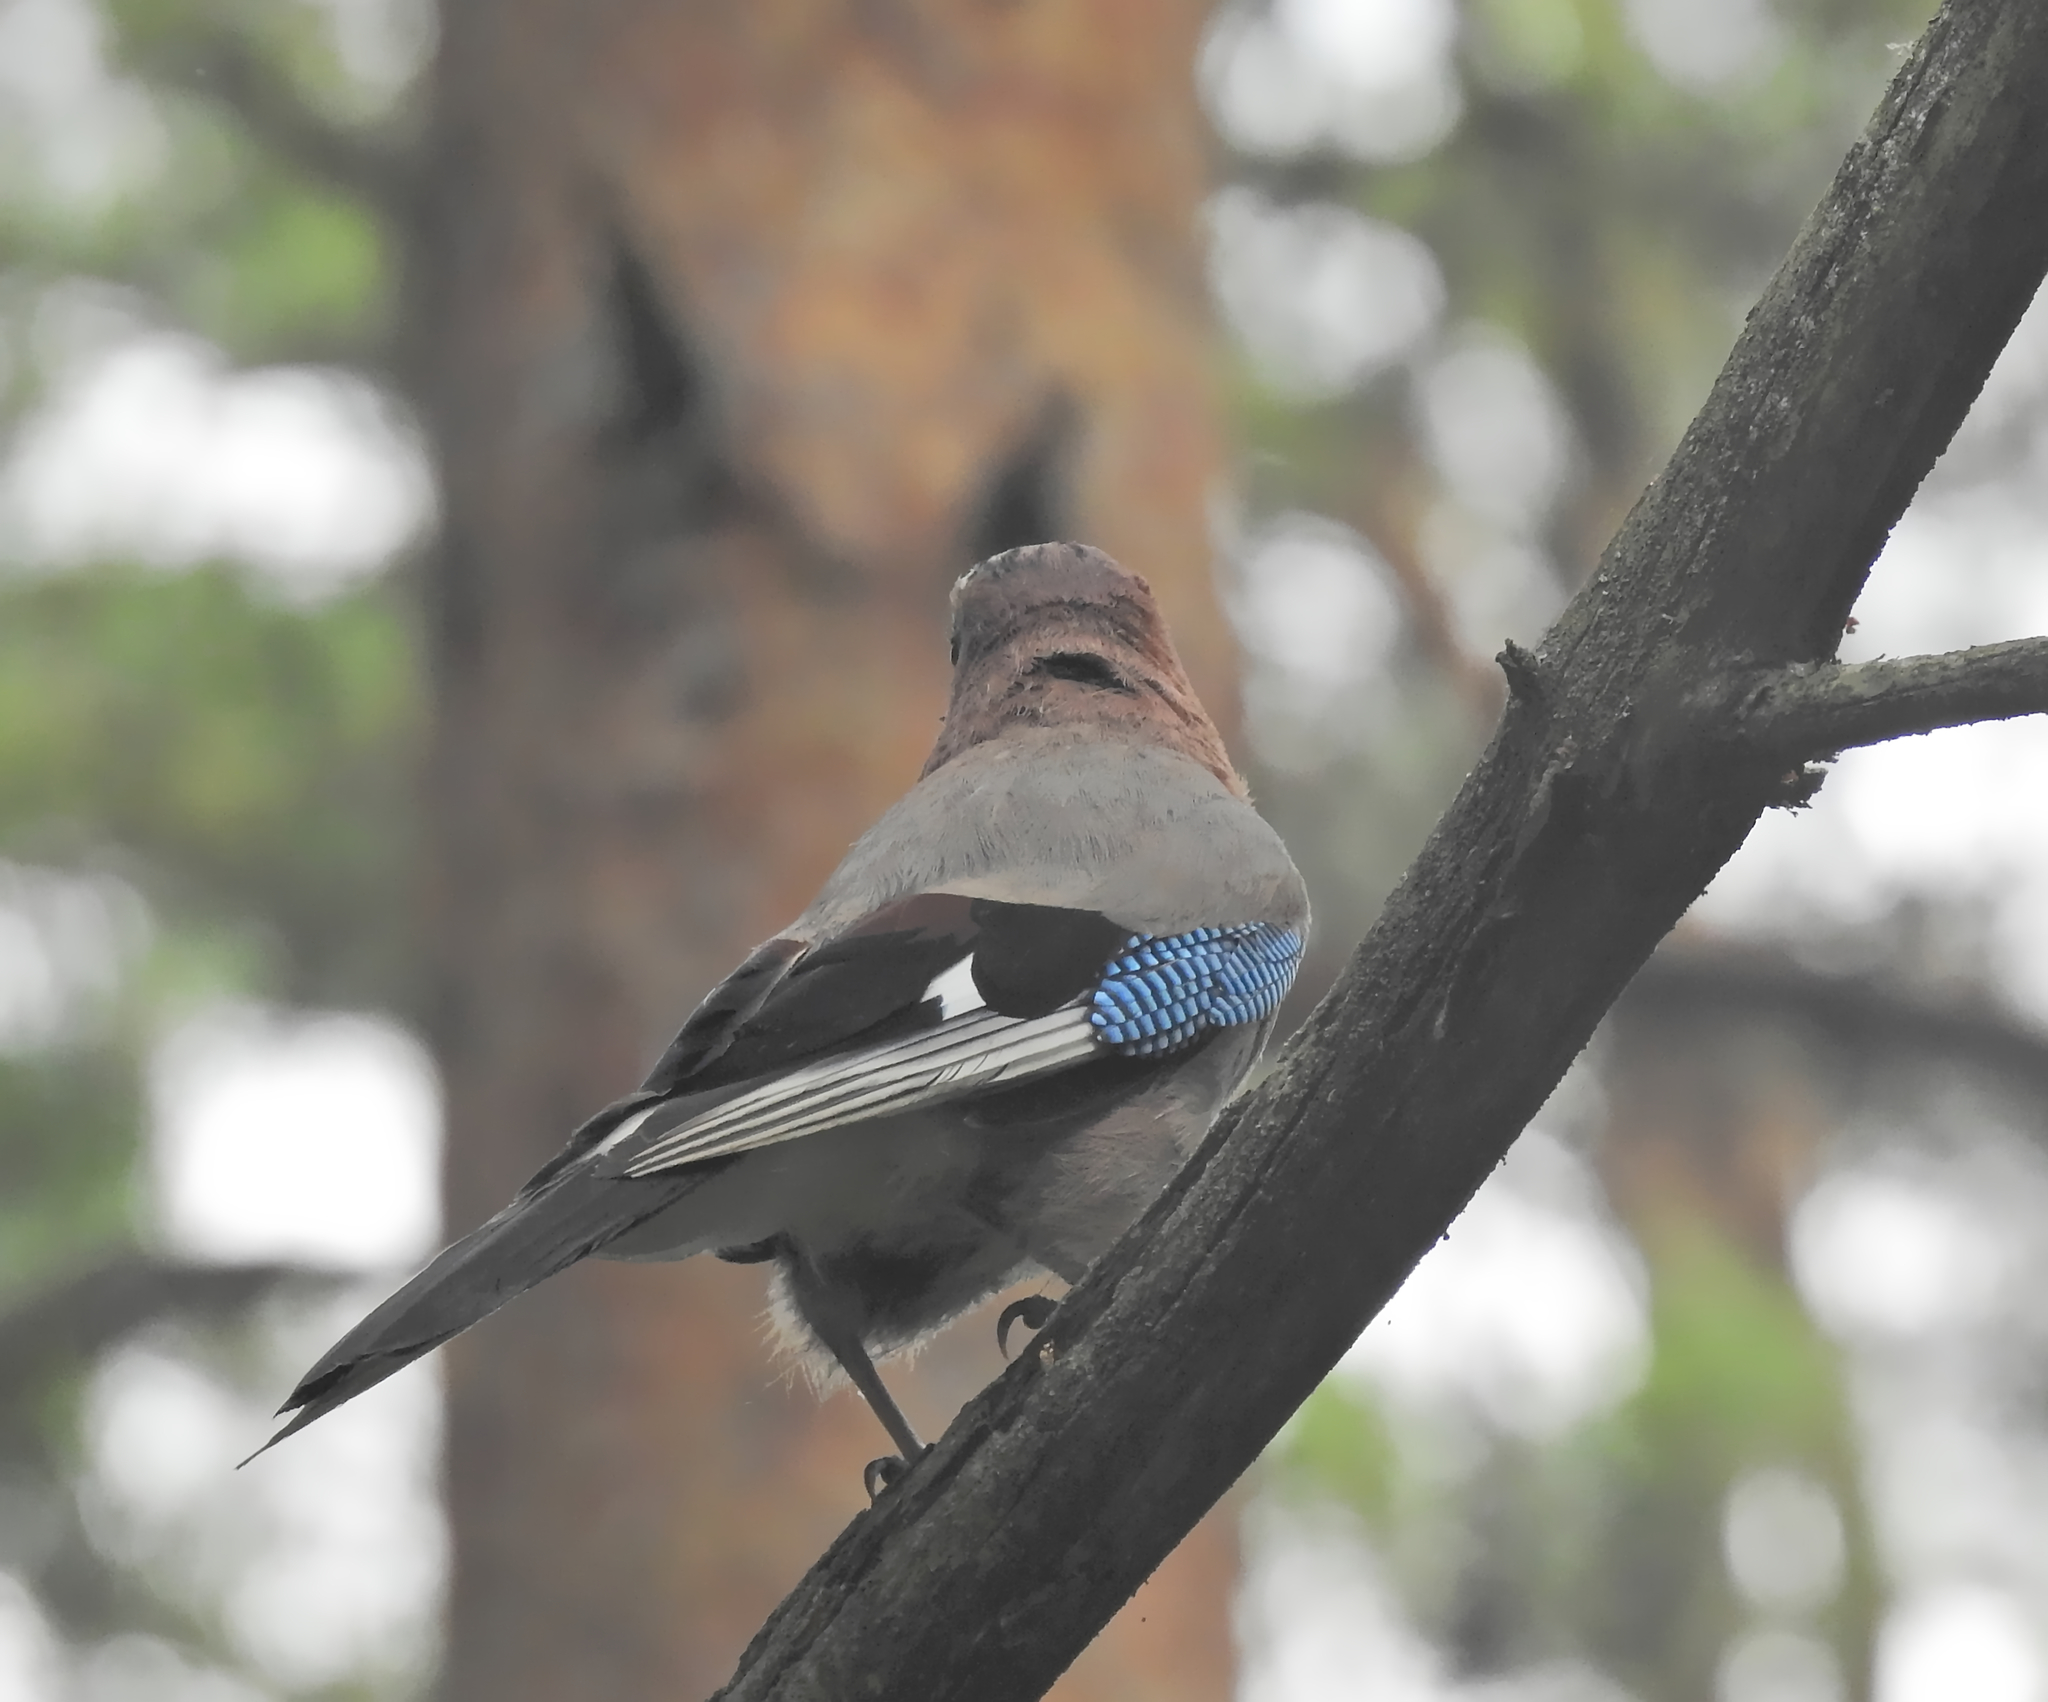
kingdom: Animalia
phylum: Chordata
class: Aves
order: Passeriformes
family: Corvidae
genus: Garrulus
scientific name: Garrulus glandarius
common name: Eurasian jay
